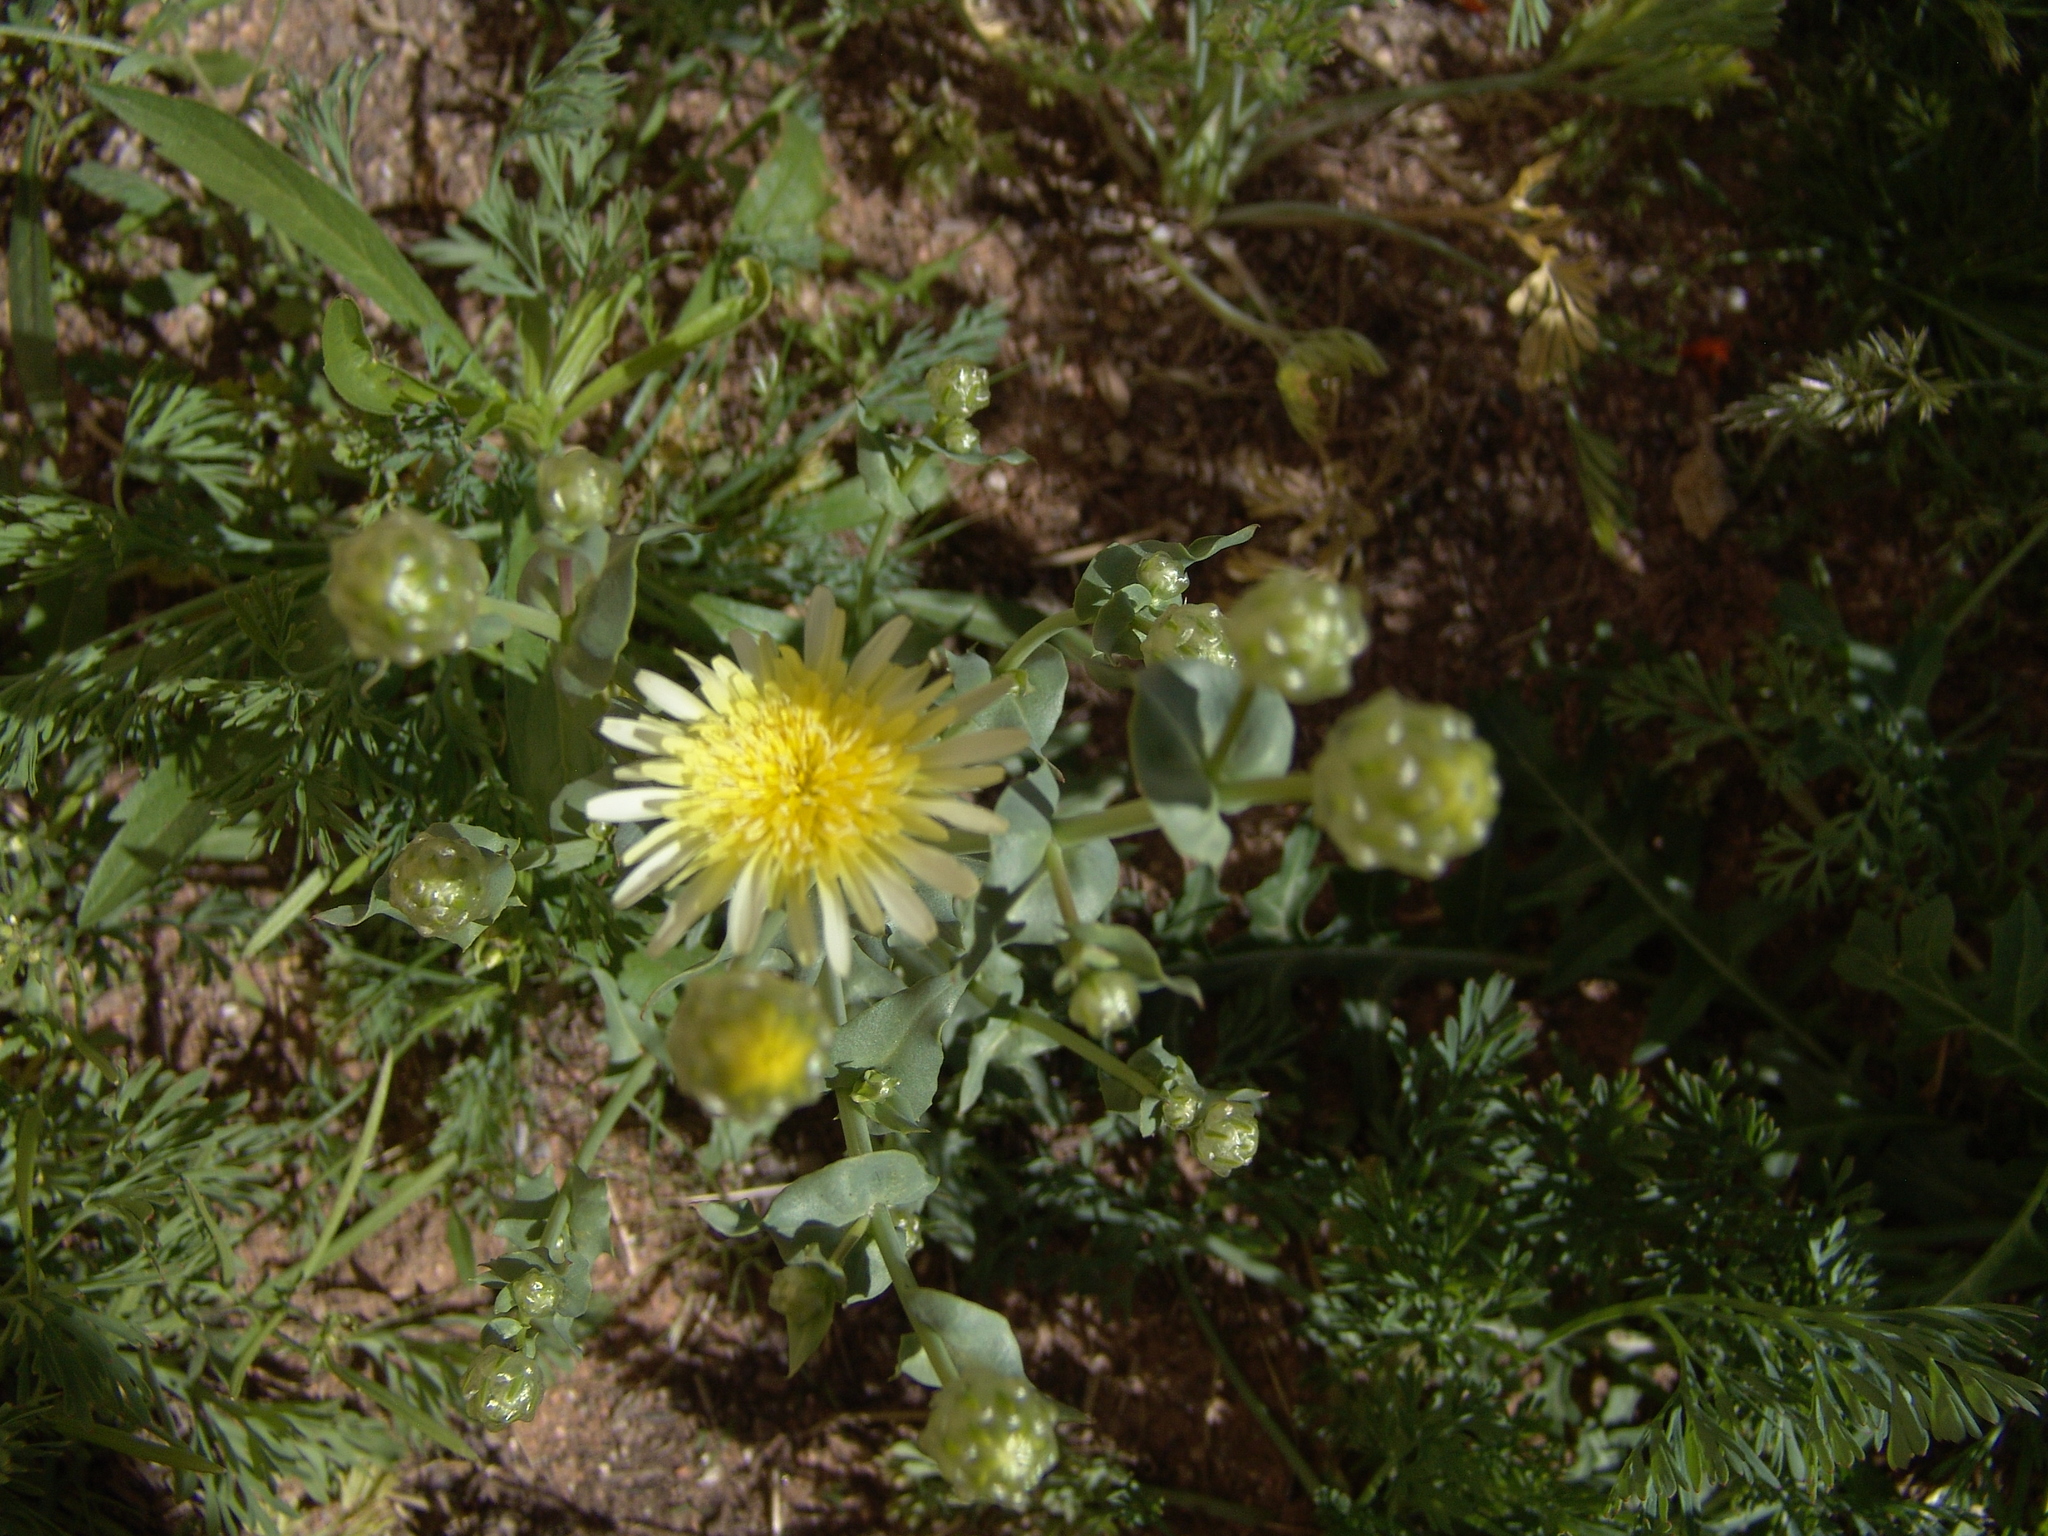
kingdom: Plantae
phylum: Tracheophyta
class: Magnoliopsida
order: Asterales
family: Asteraceae
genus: Malacothrix
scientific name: Malacothrix coulteri
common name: Snake's-head
